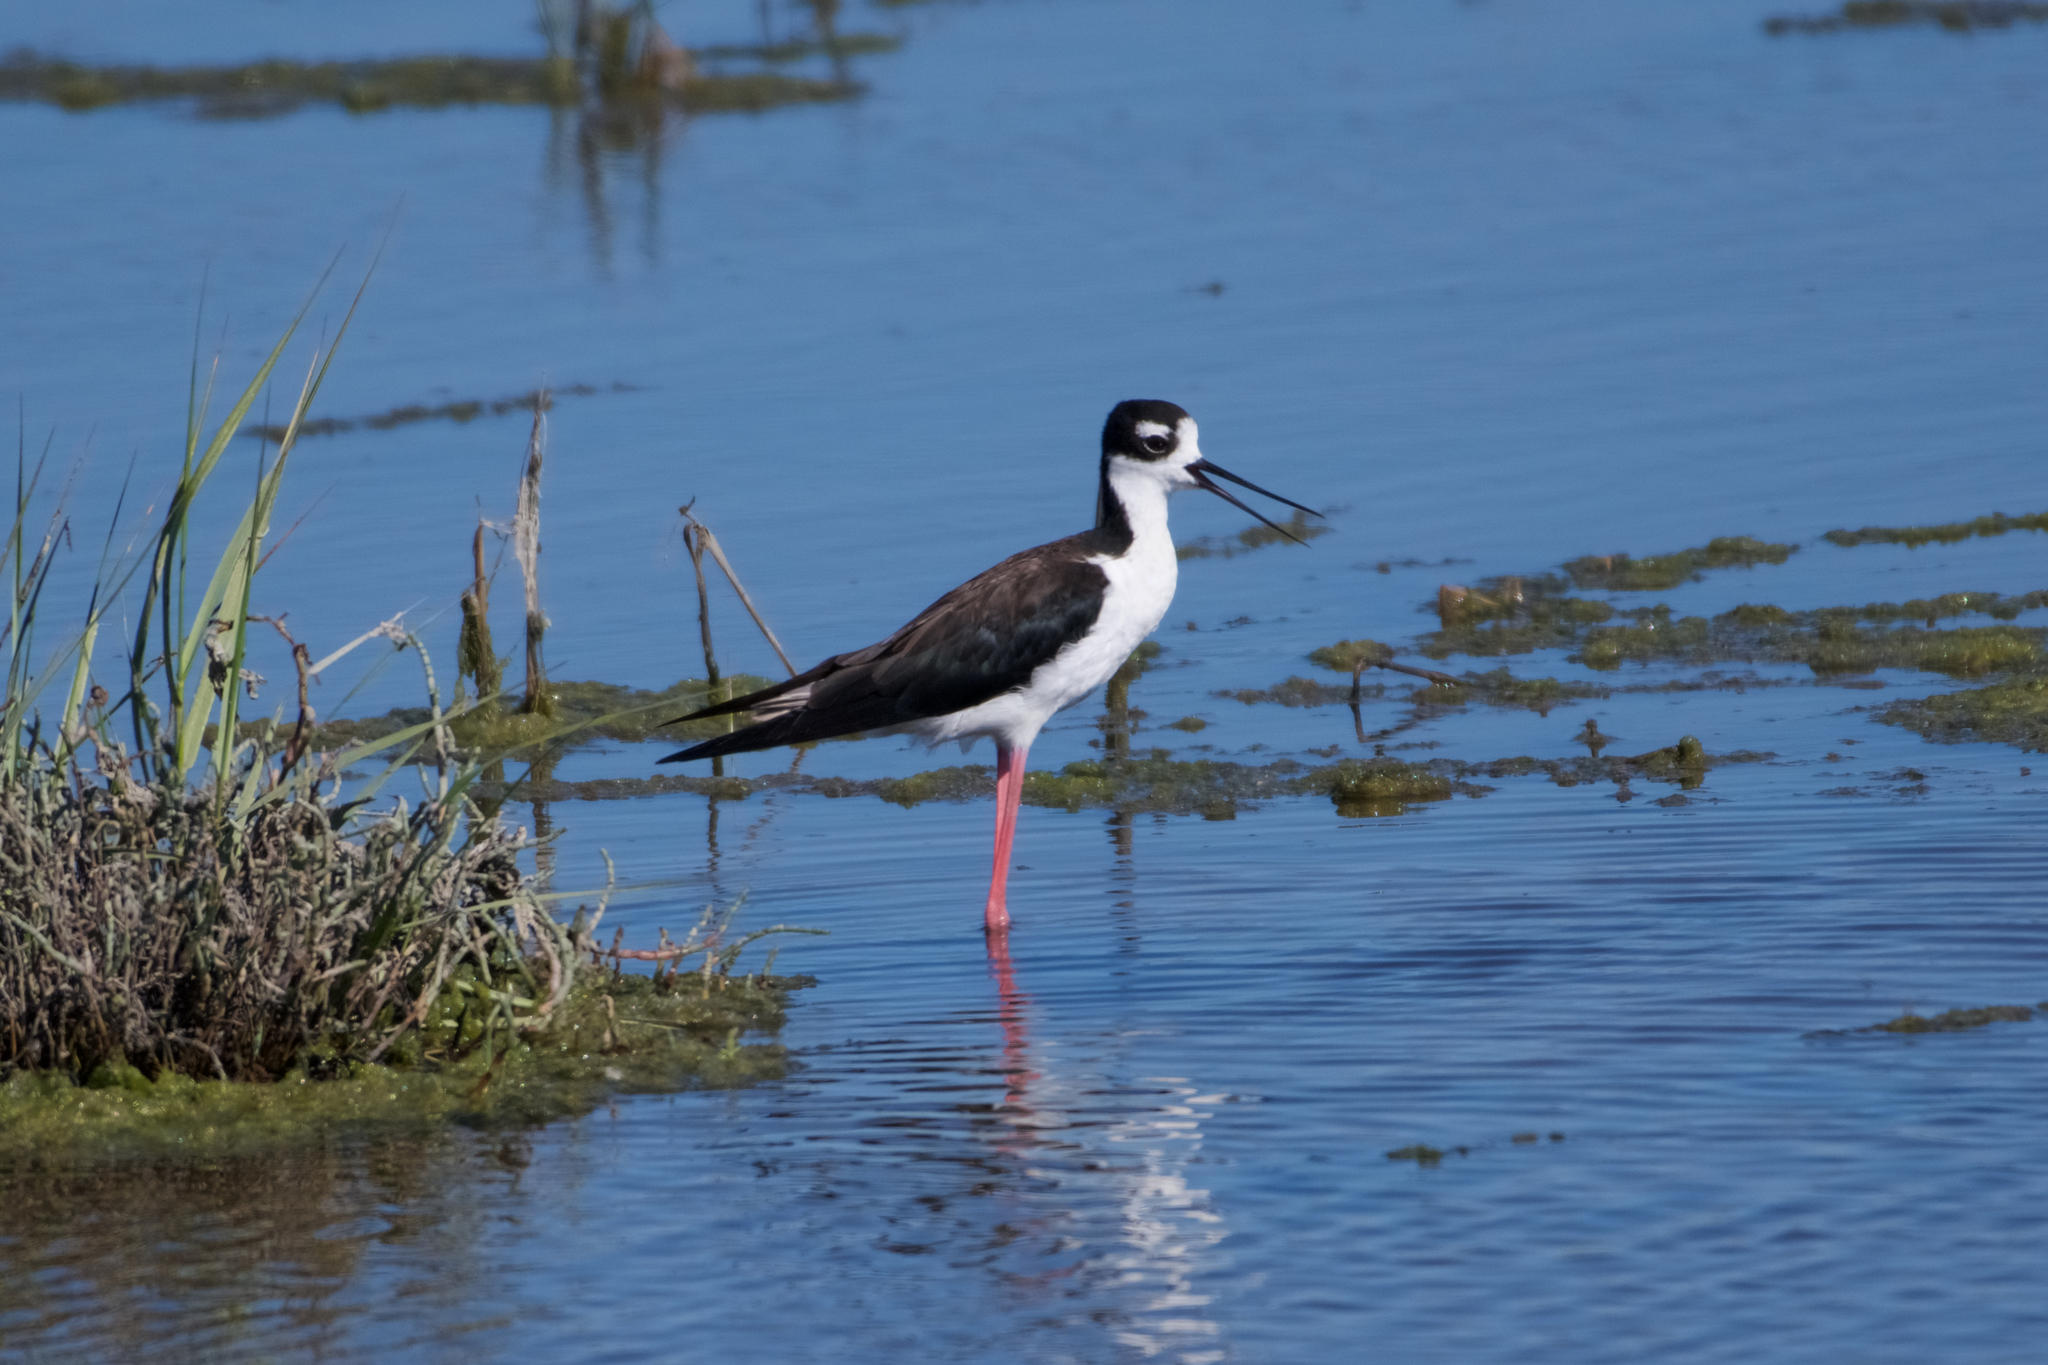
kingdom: Animalia
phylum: Chordata
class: Aves
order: Charadriiformes
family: Recurvirostridae
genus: Himantopus
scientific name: Himantopus mexicanus
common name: Black-necked stilt
